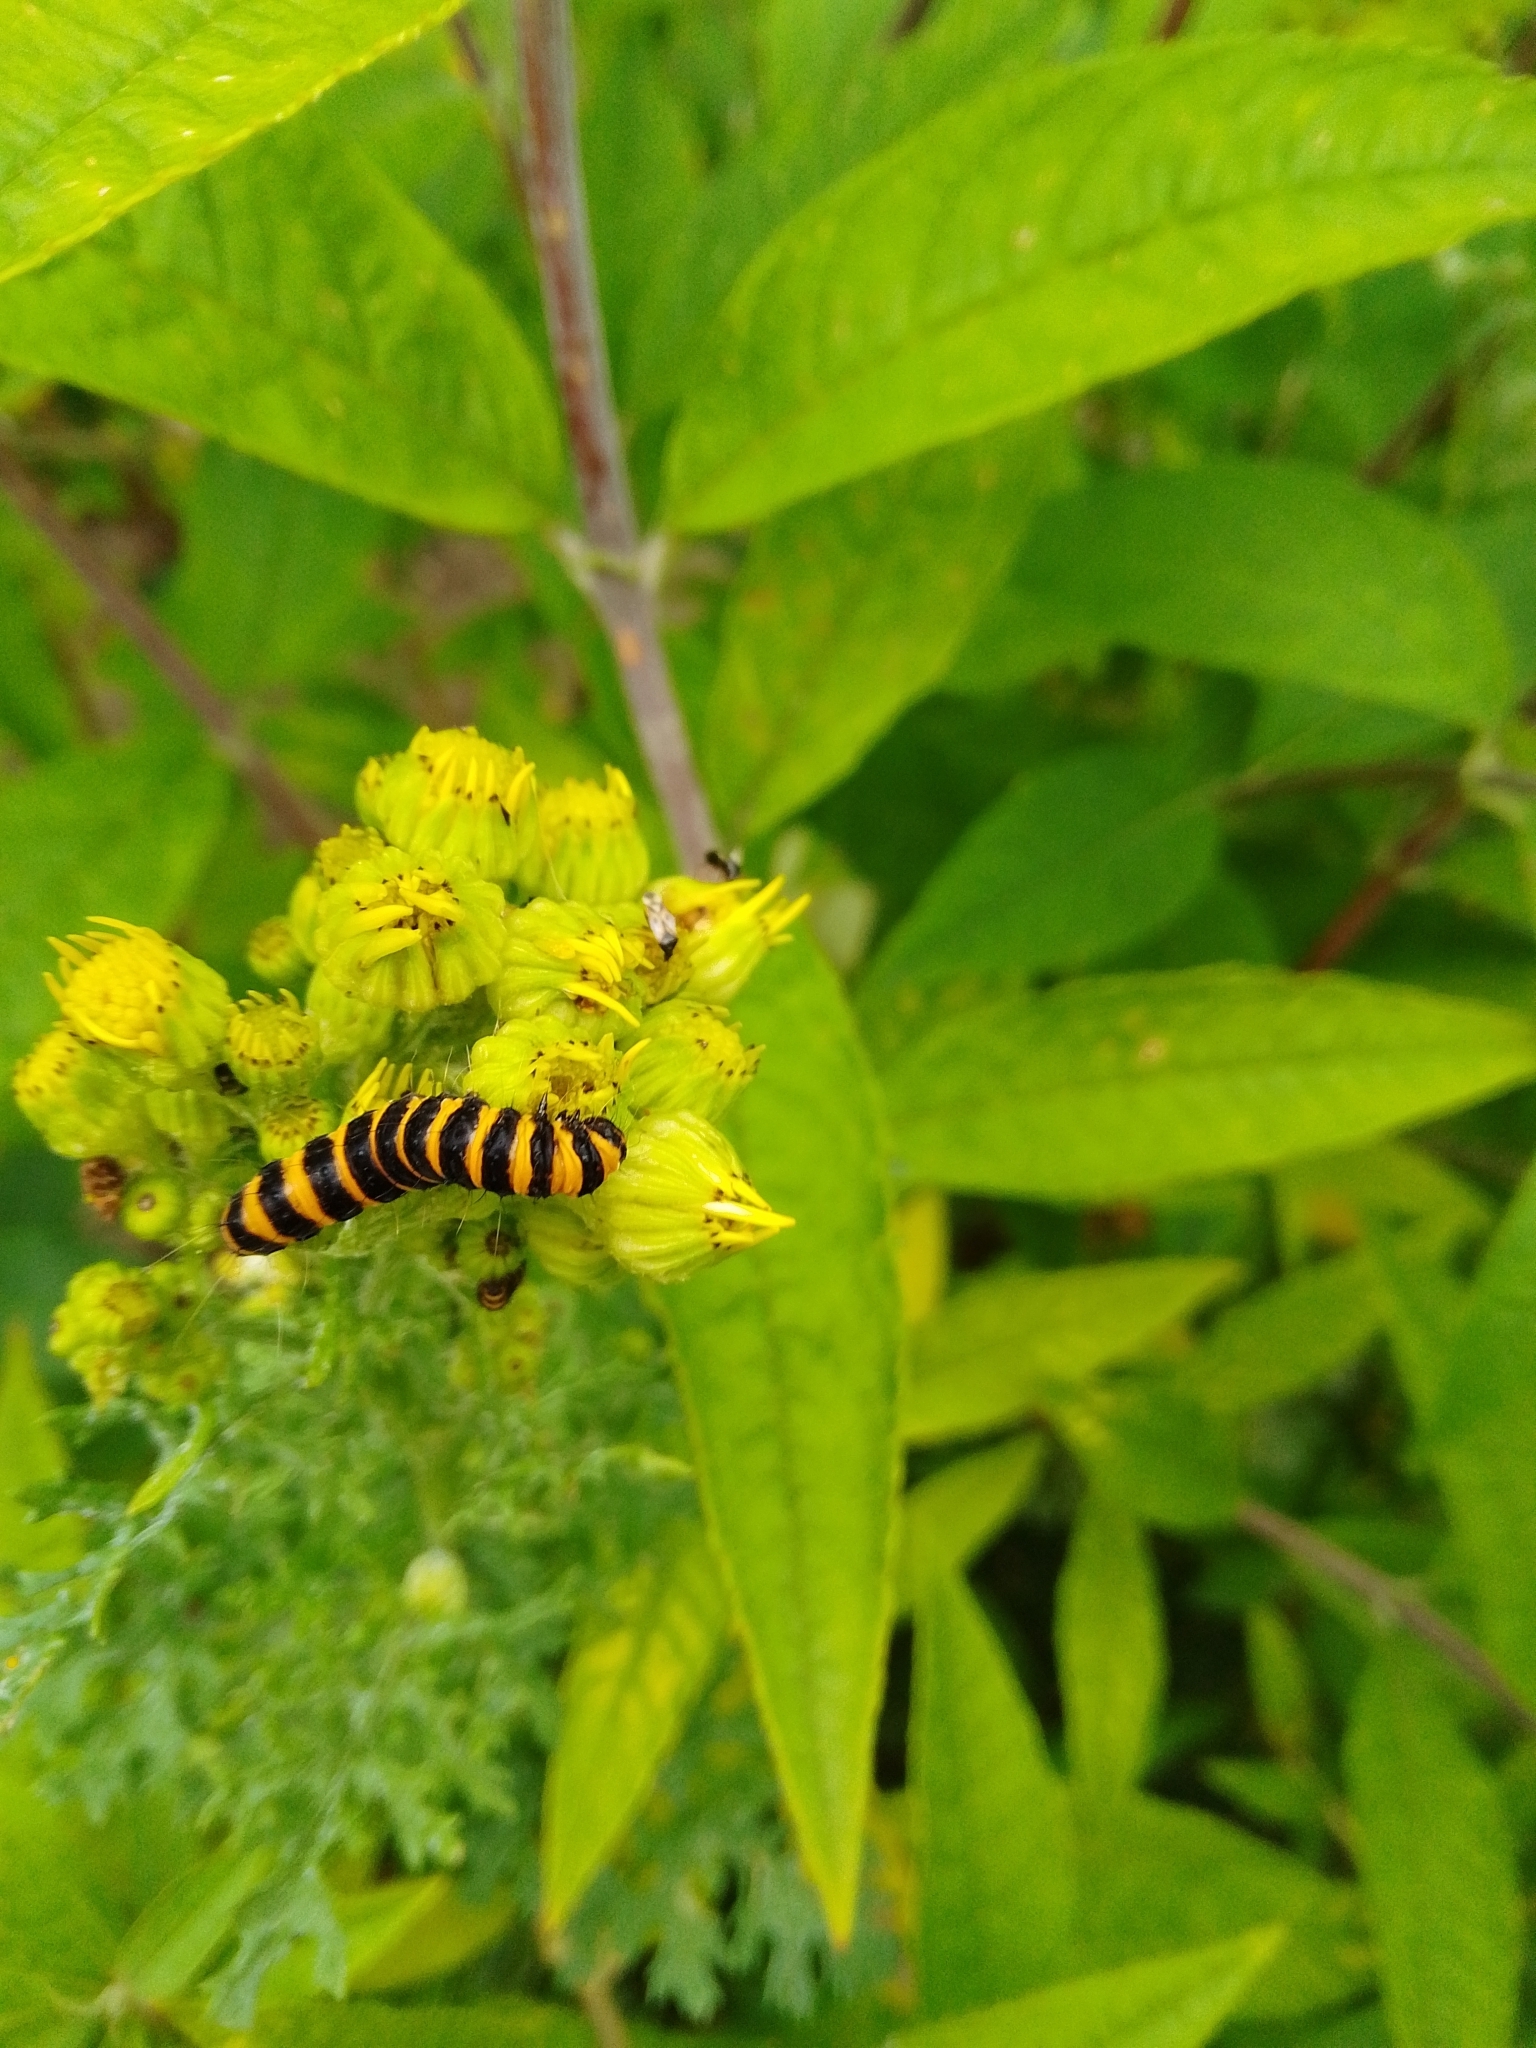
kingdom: Animalia
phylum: Arthropoda
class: Insecta
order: Lepidoptera
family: Erebidae
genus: Tyria
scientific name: Tyria jacobaeae
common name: Cinnabar
